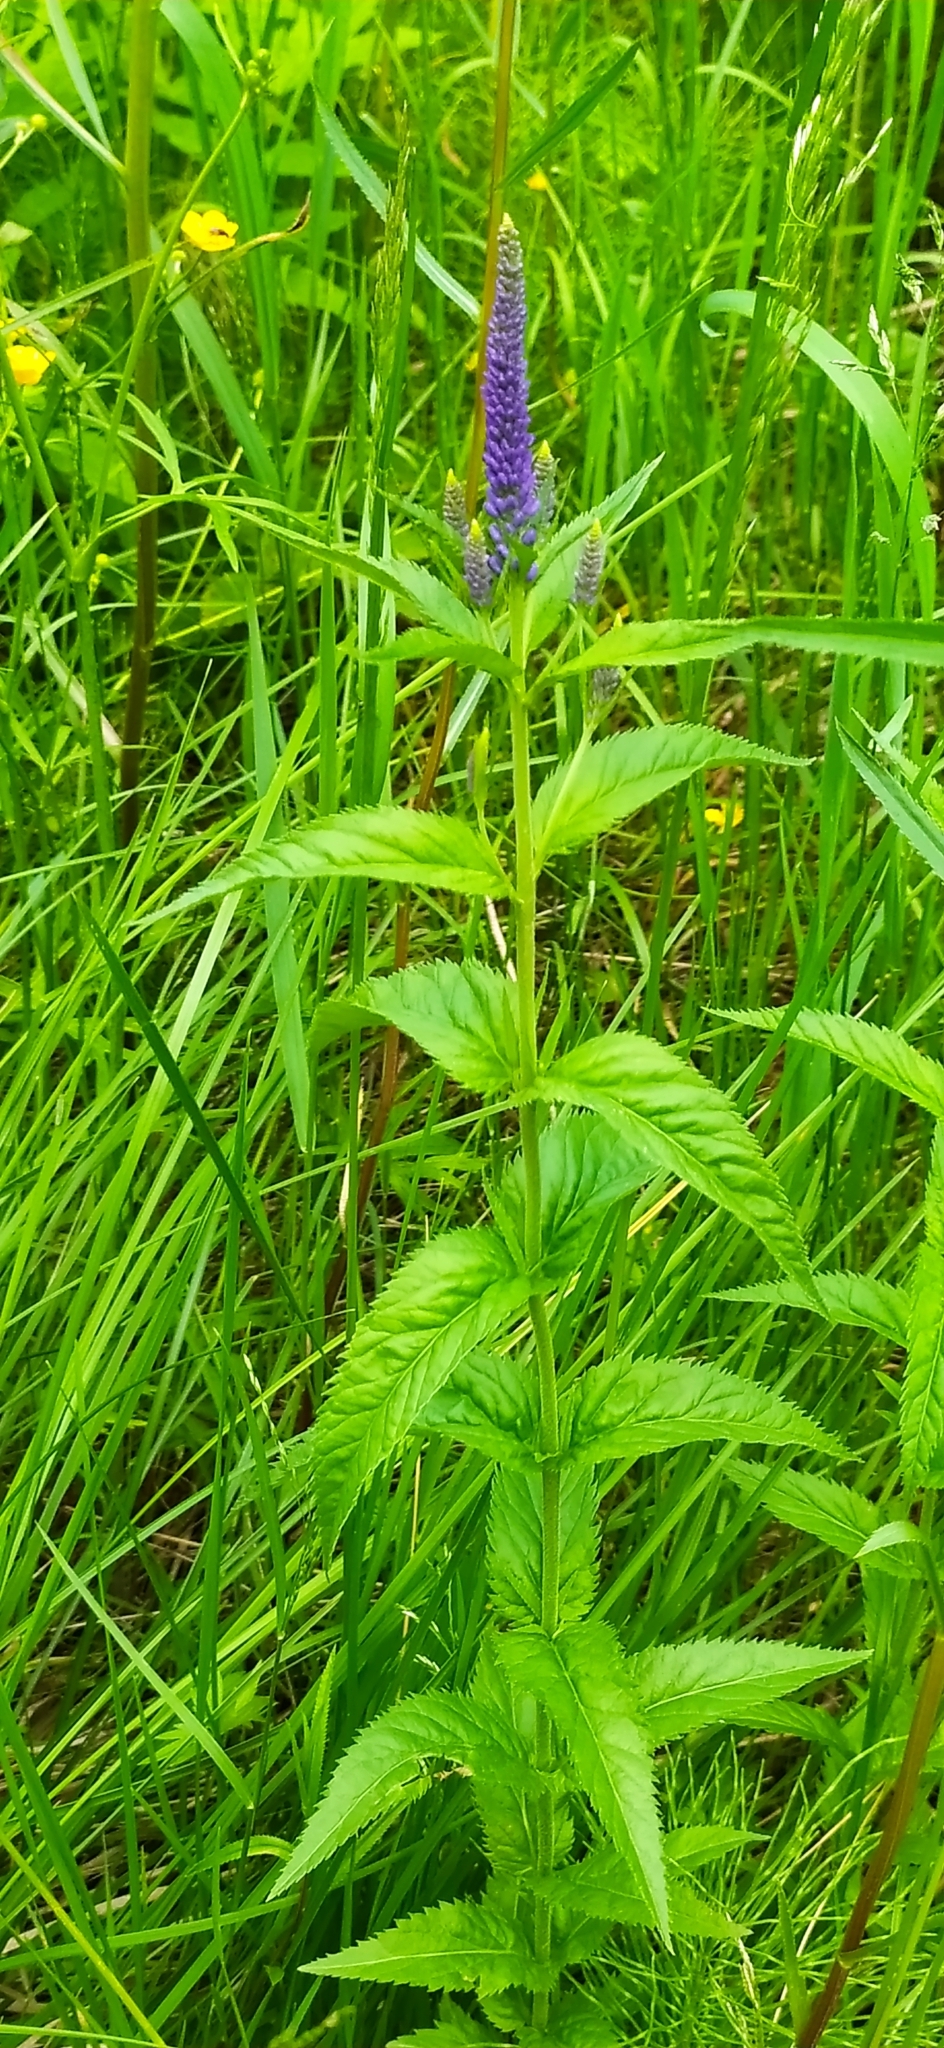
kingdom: Plantae
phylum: Tracheophyta
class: Magnoliopsida
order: Lamiales
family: Plantaginaceae
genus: Veronica
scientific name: Veronica longifolia
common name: Garden speedwell
